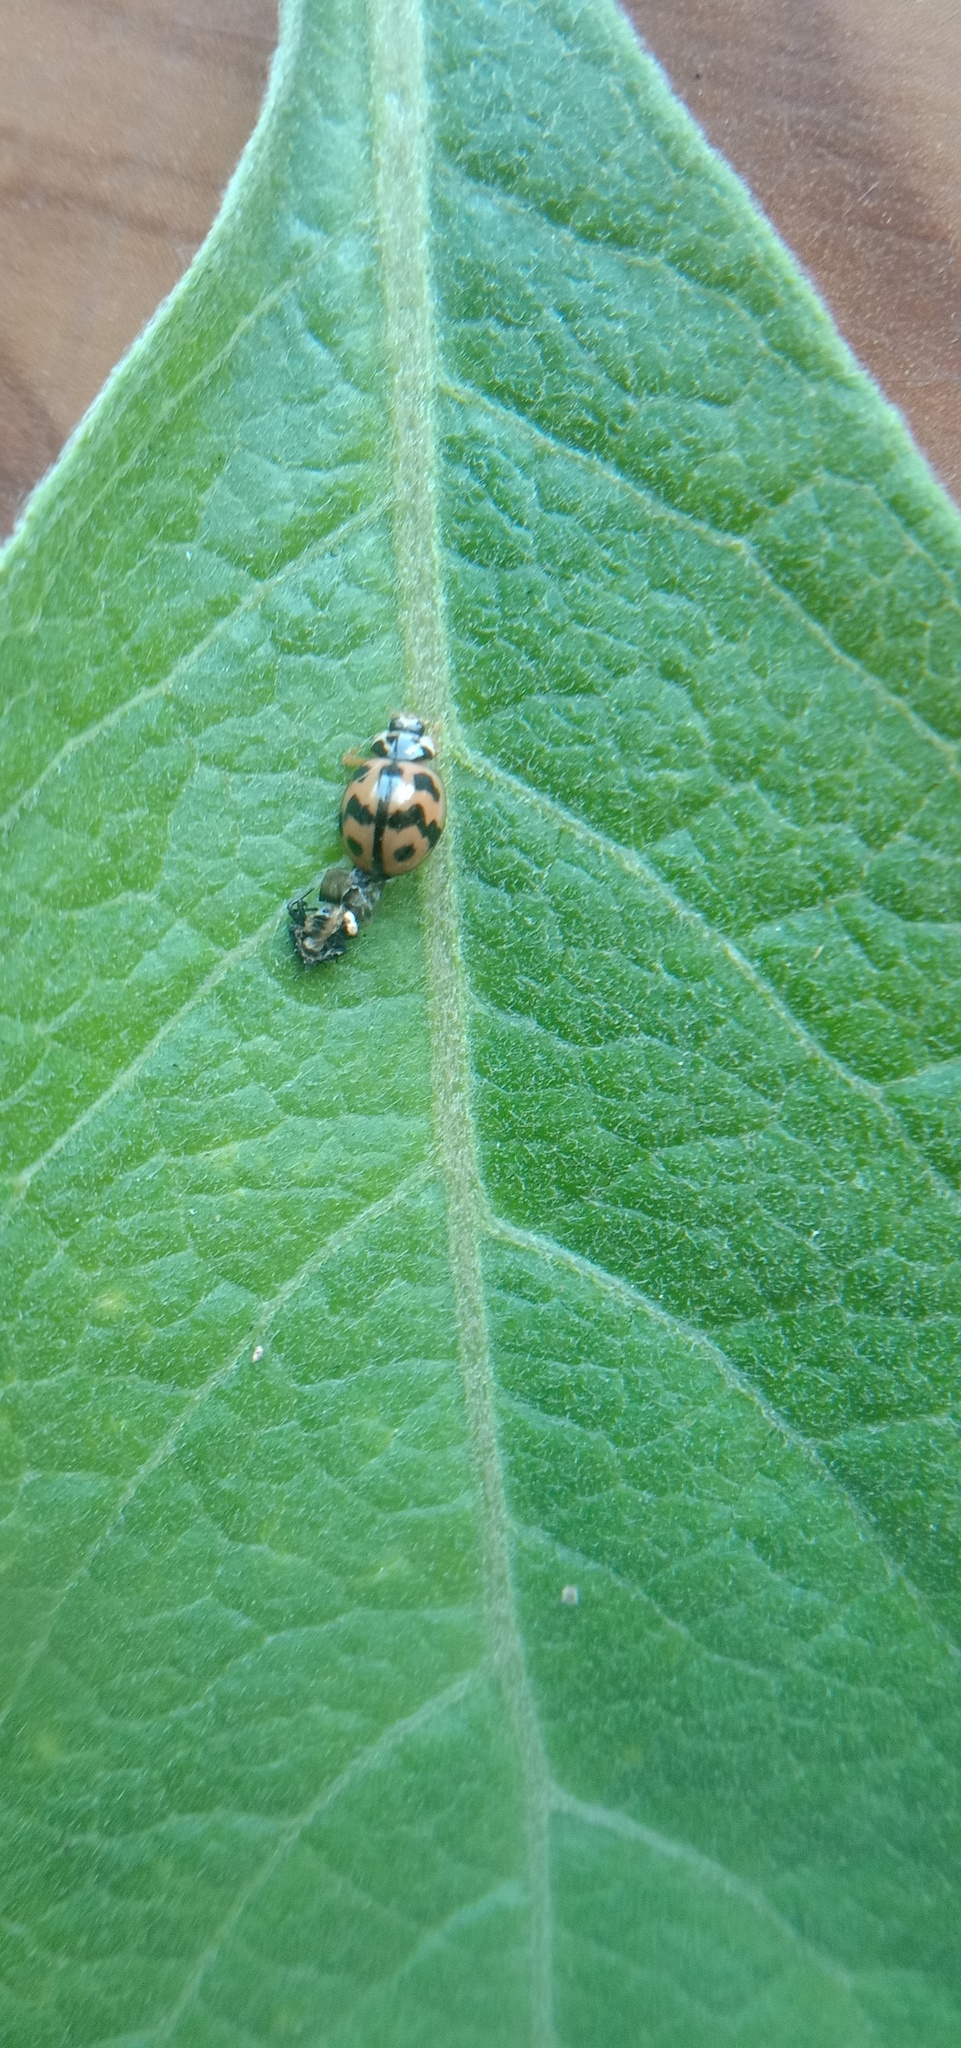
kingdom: Animalia
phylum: Arthropoda
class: Insecta
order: Coleoptera
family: Coccinellidae
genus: Cheilomenes
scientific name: Cheilomenes sexmaculata
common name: Ladybird beetle
